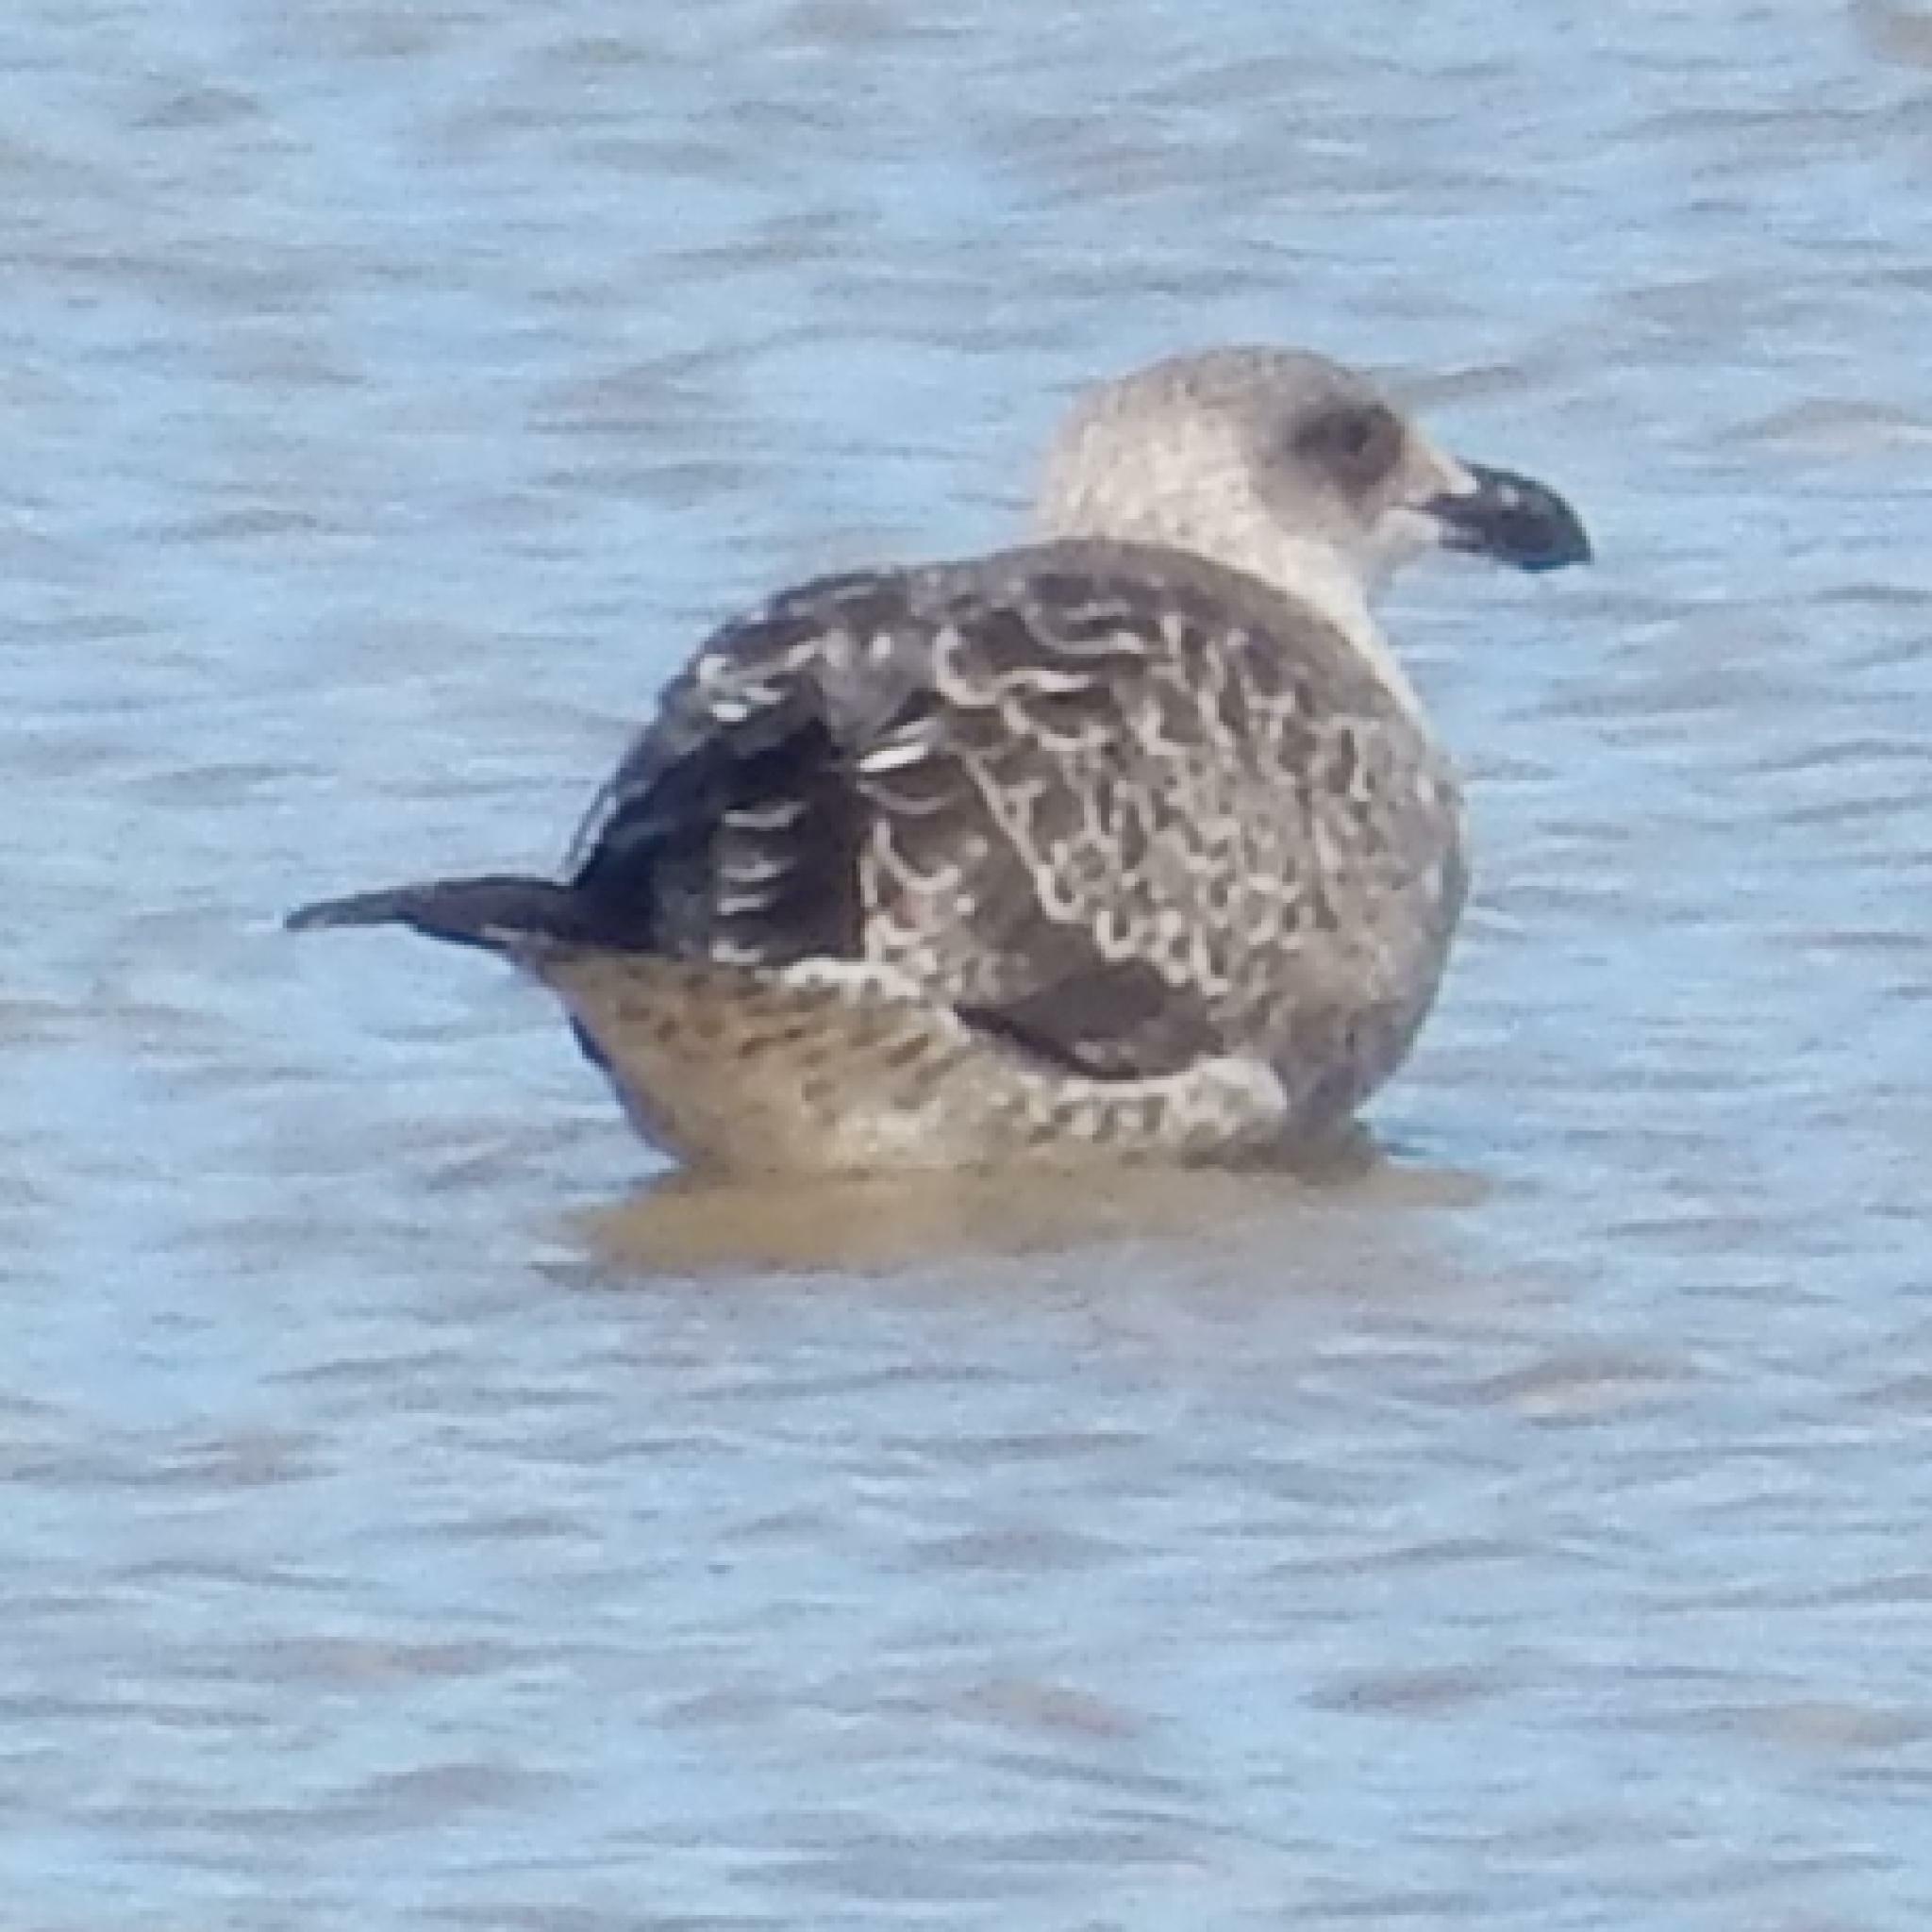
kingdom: Animalia
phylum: Chordata
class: Aves
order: Charadriiformes
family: Laridae
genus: Larus
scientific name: Larus dominicanus
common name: Kelp gull
